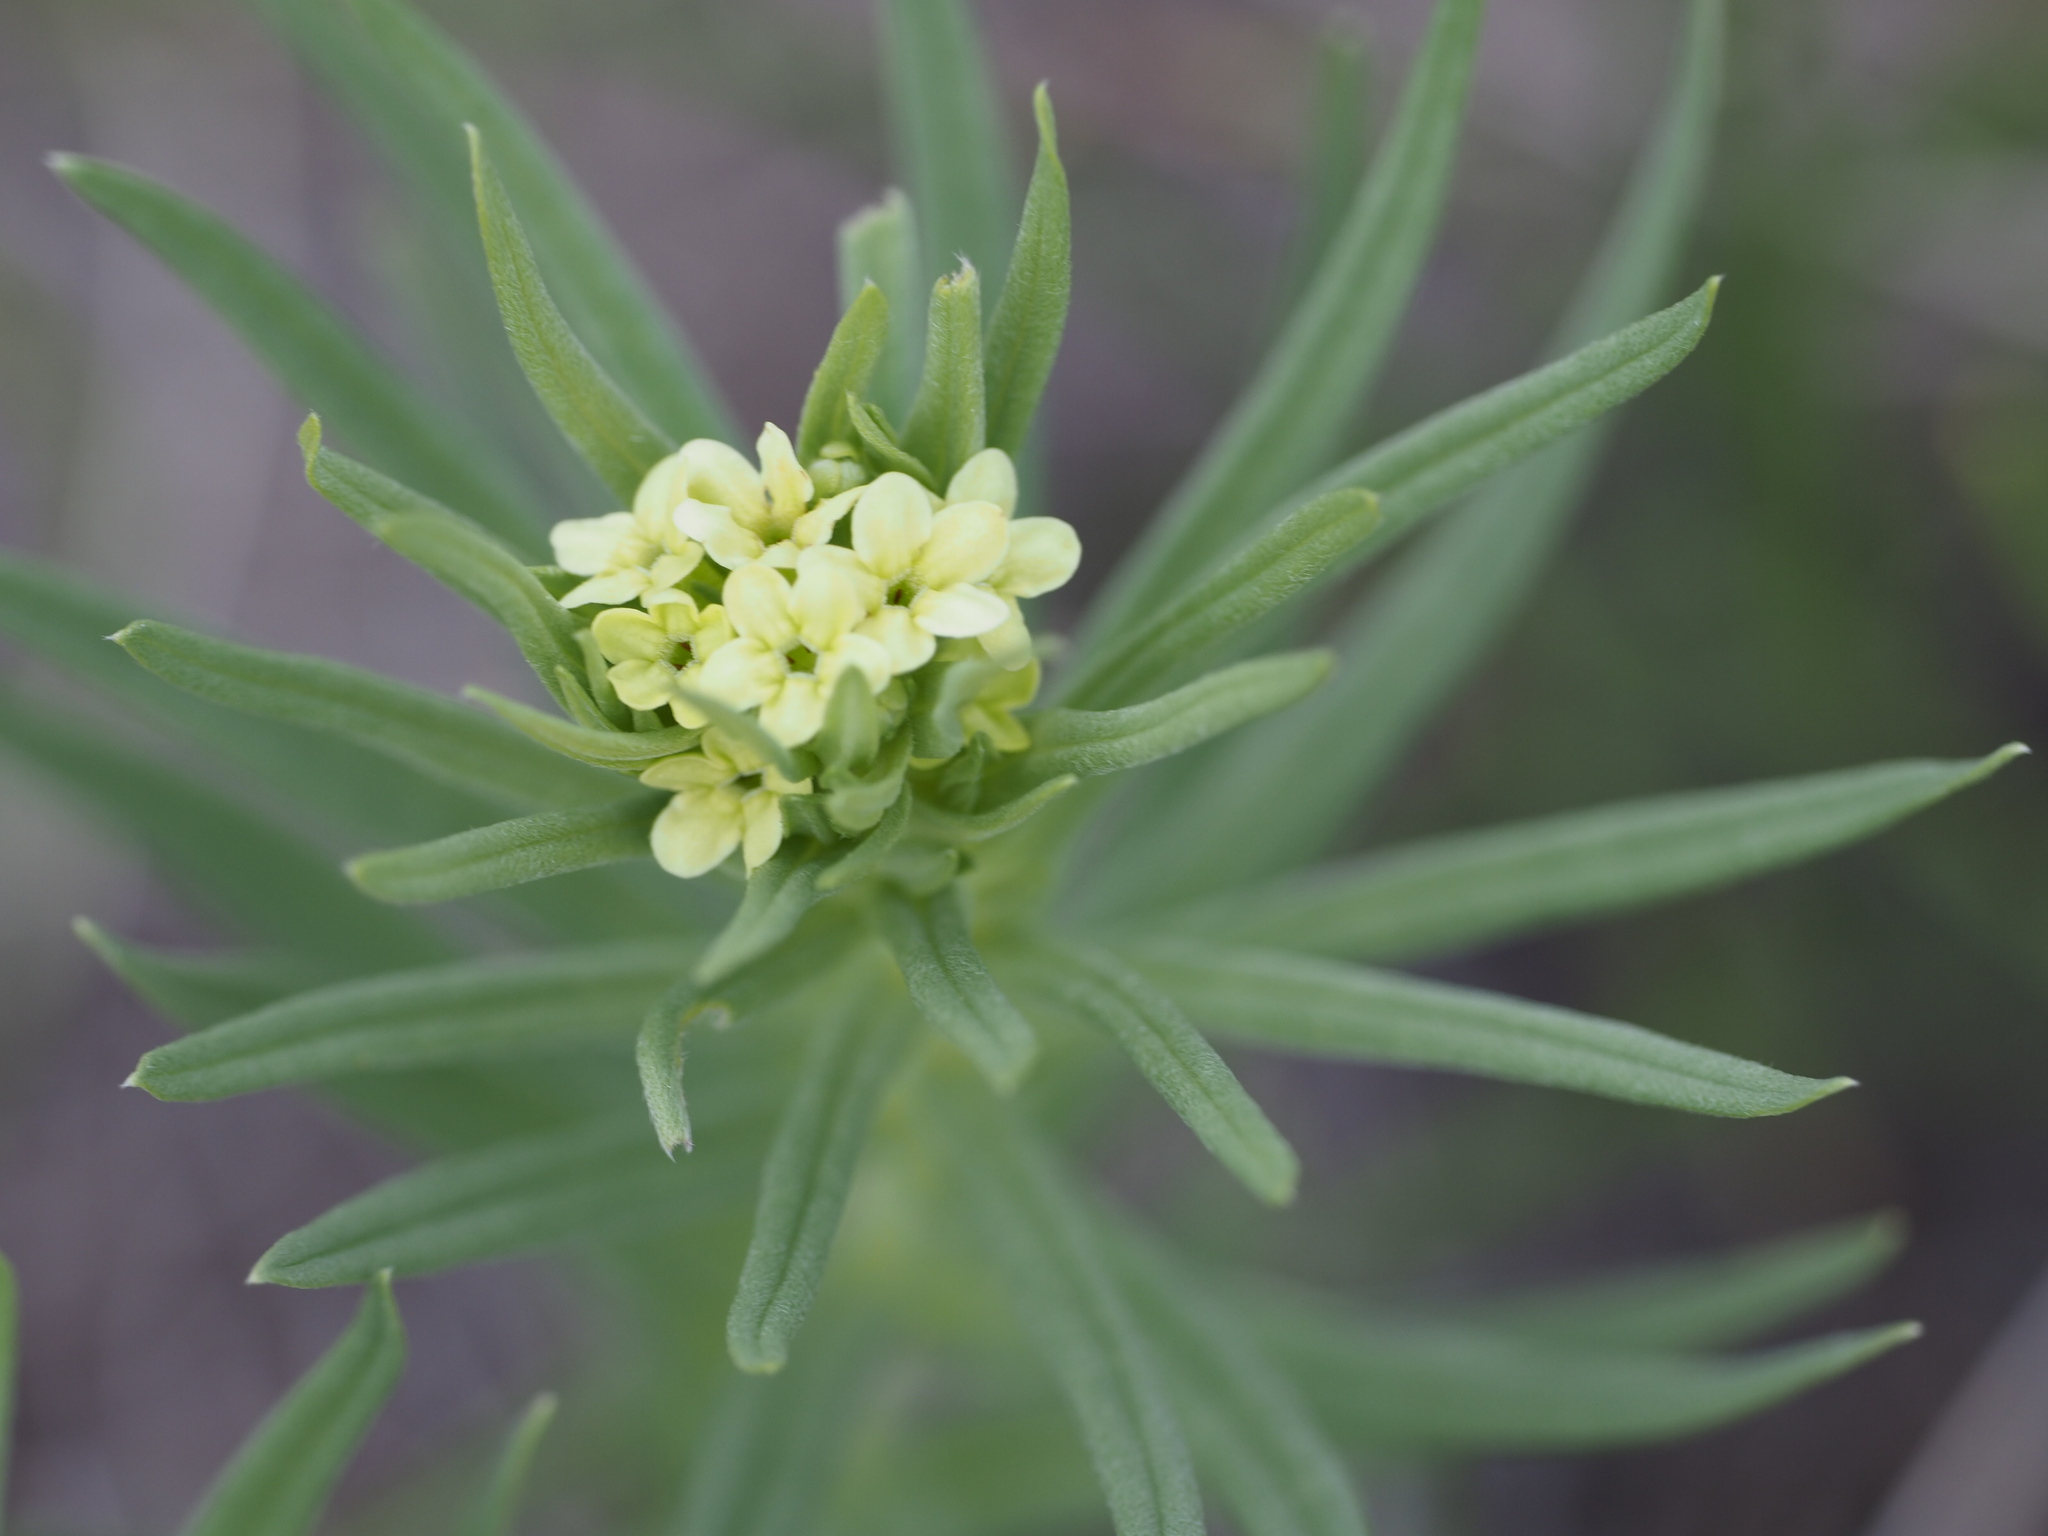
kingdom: Plantae
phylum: Tracheophyta
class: Magnoliopsida
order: Boraginales
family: Boraginaceae
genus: Lithospermum
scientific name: Lithospermum ruderale
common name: Western gromwell
